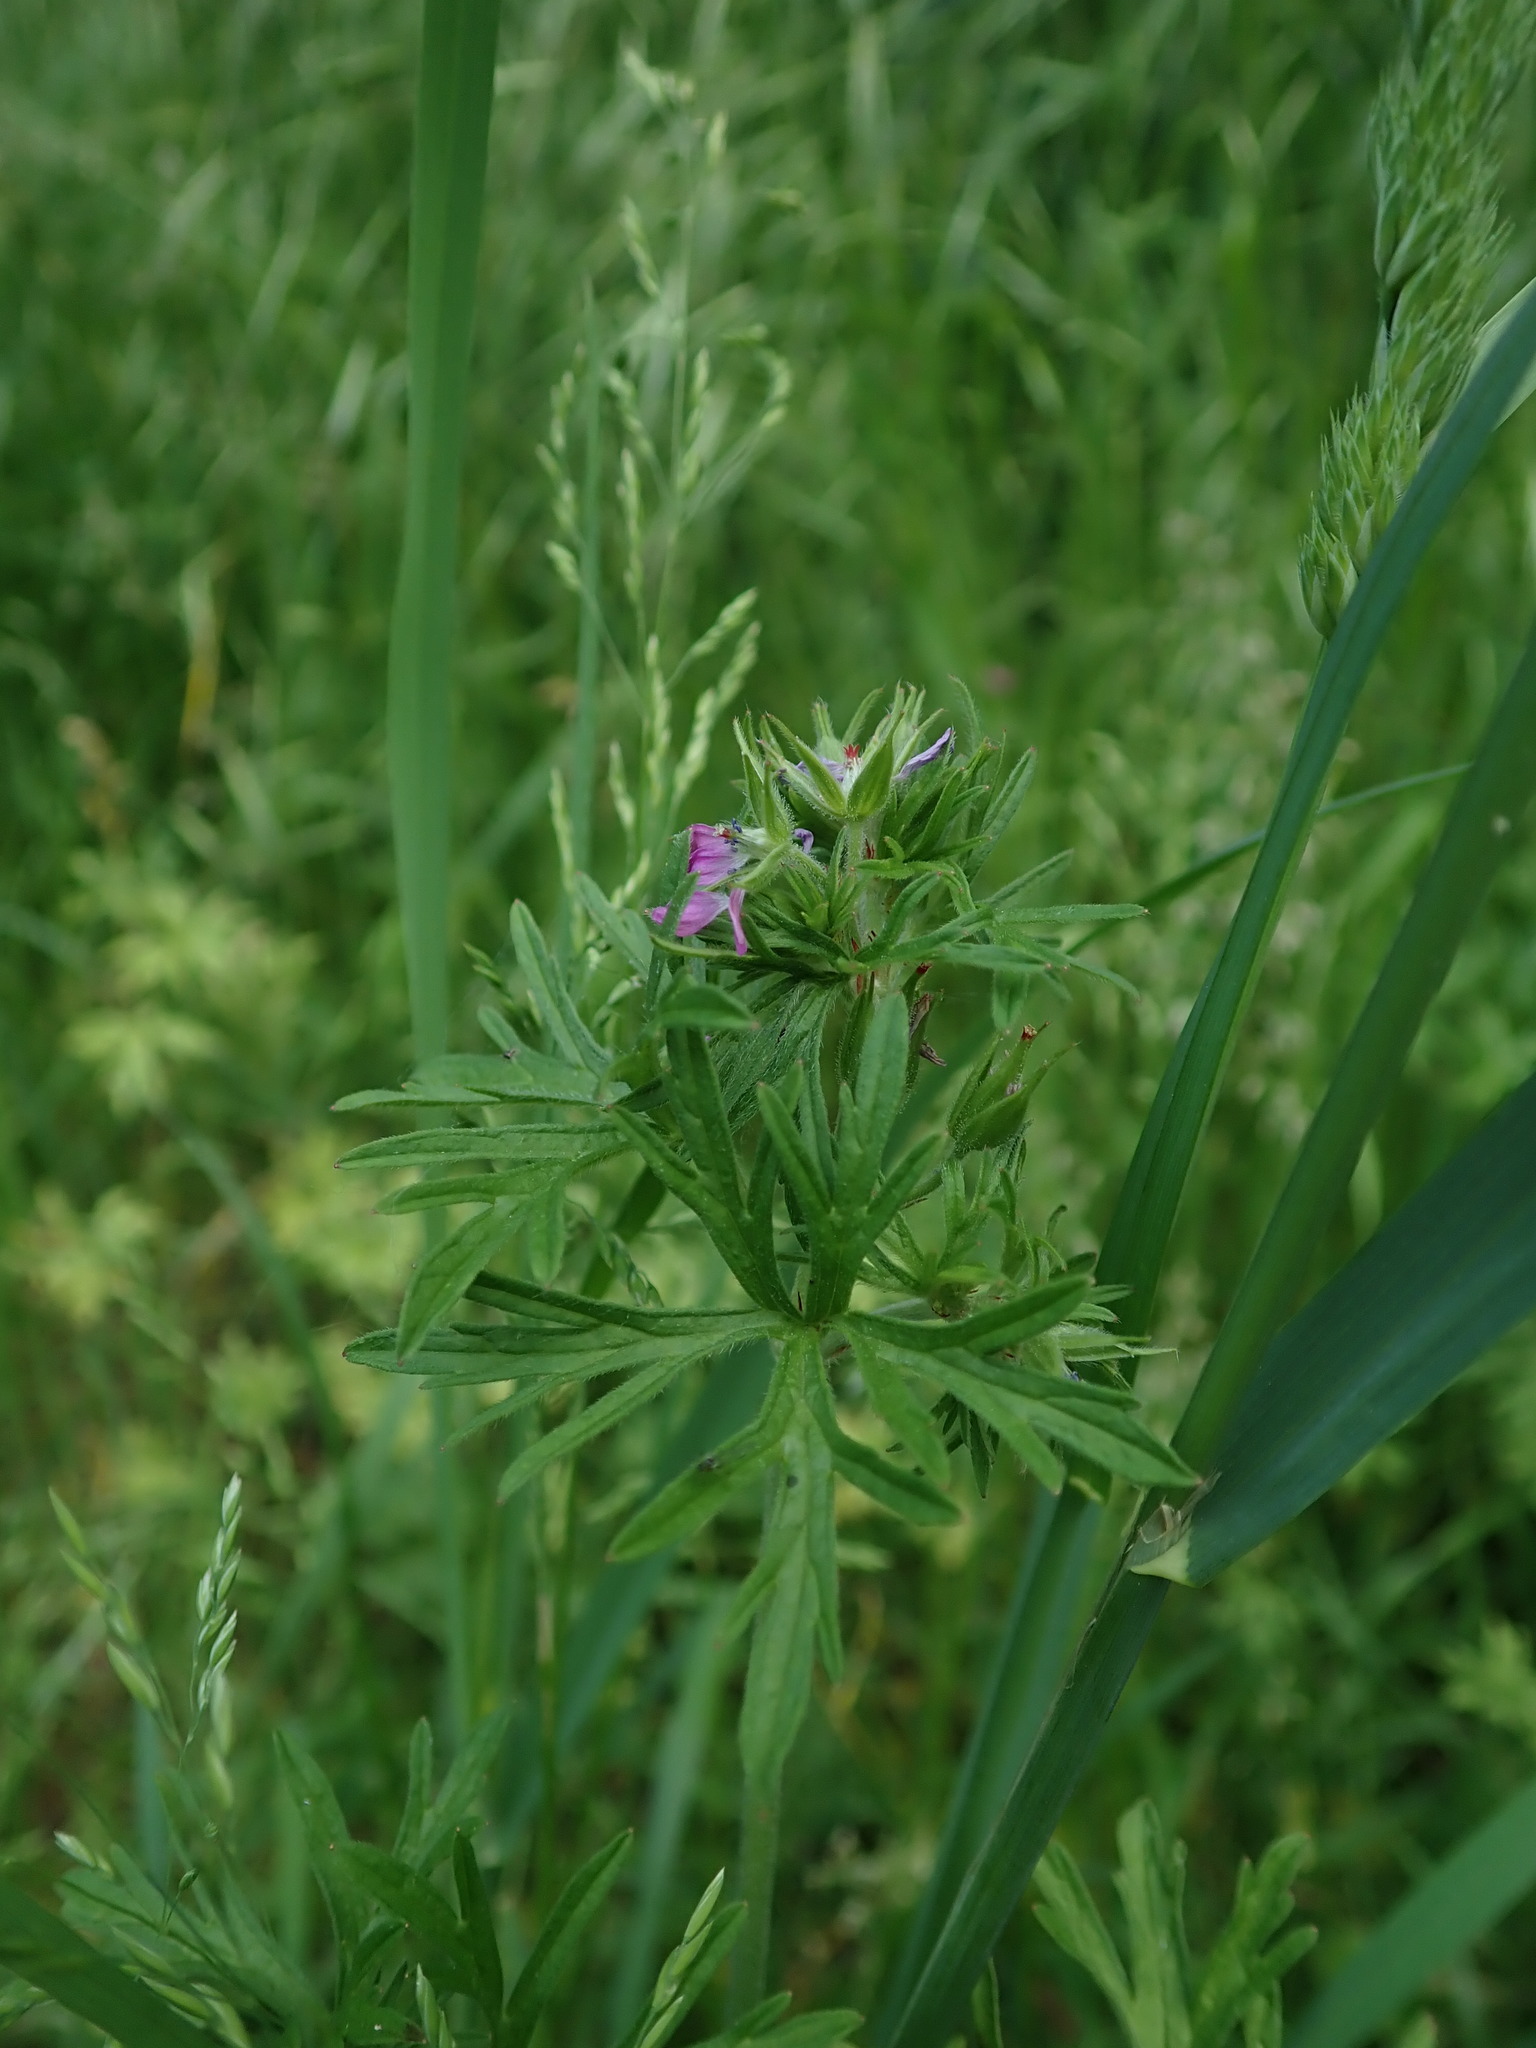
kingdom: Plantae
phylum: Tracheophyta
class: Magnoliopsida
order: Geraniales
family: Geraniaceae
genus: Geranium
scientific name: Geranium dissectum
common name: Cut-leaved crane's-bill
